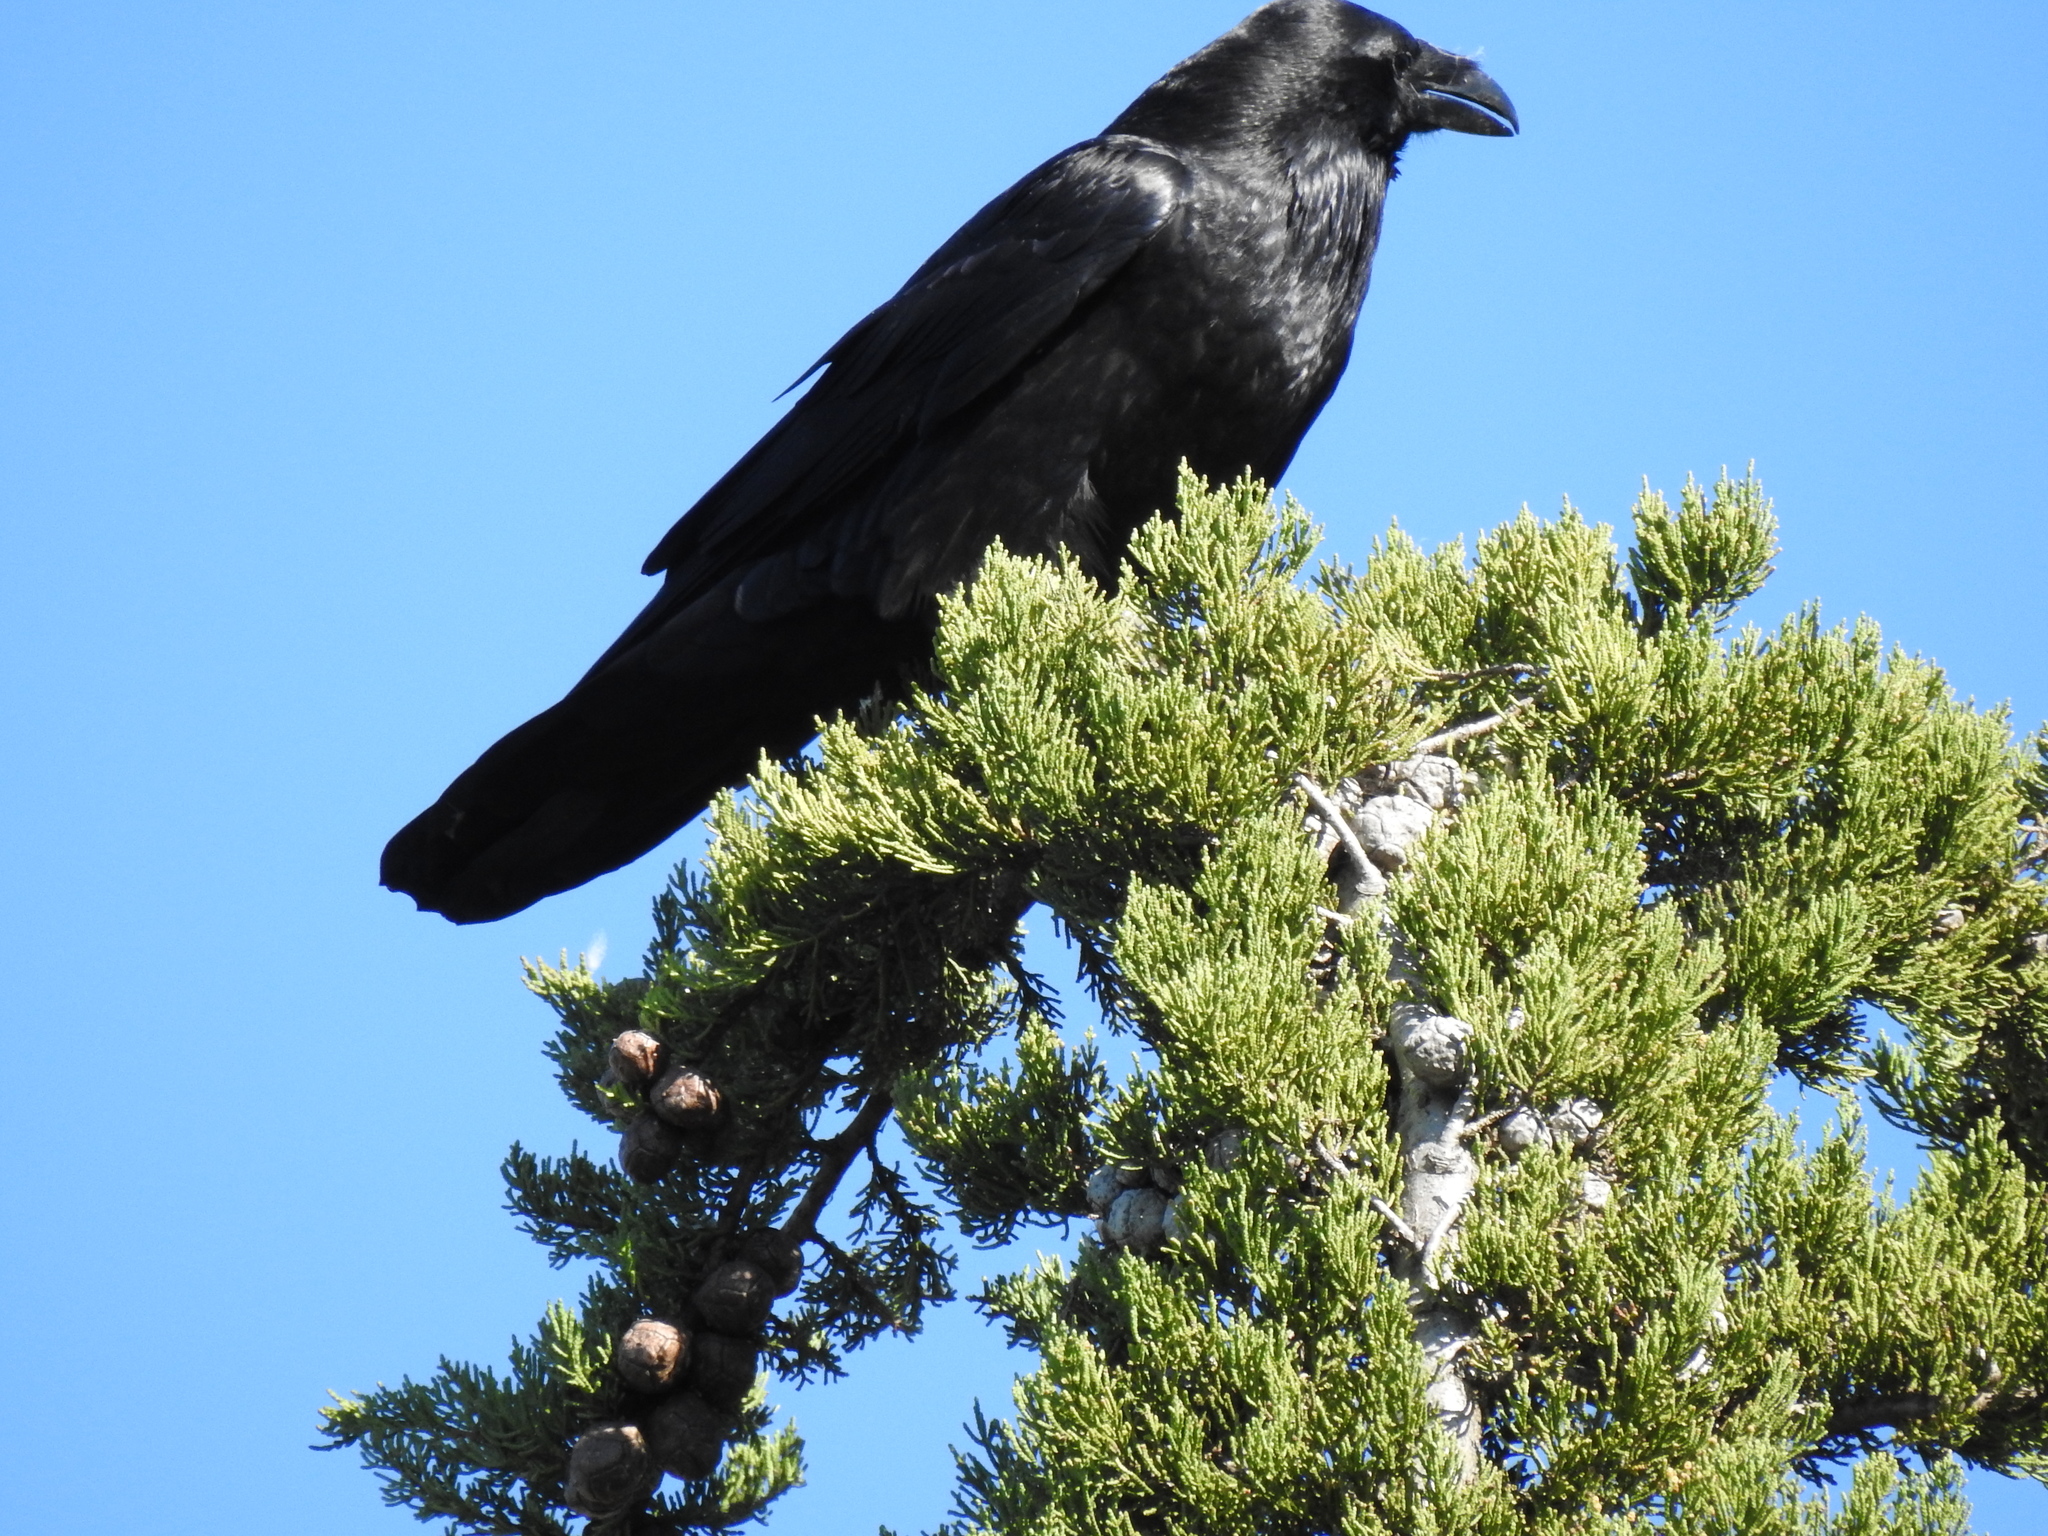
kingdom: Animalia
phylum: Chordata
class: Aves
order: Passeriformes
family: Corvidae
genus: Corvus
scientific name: Corvus corax
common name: Common raven
